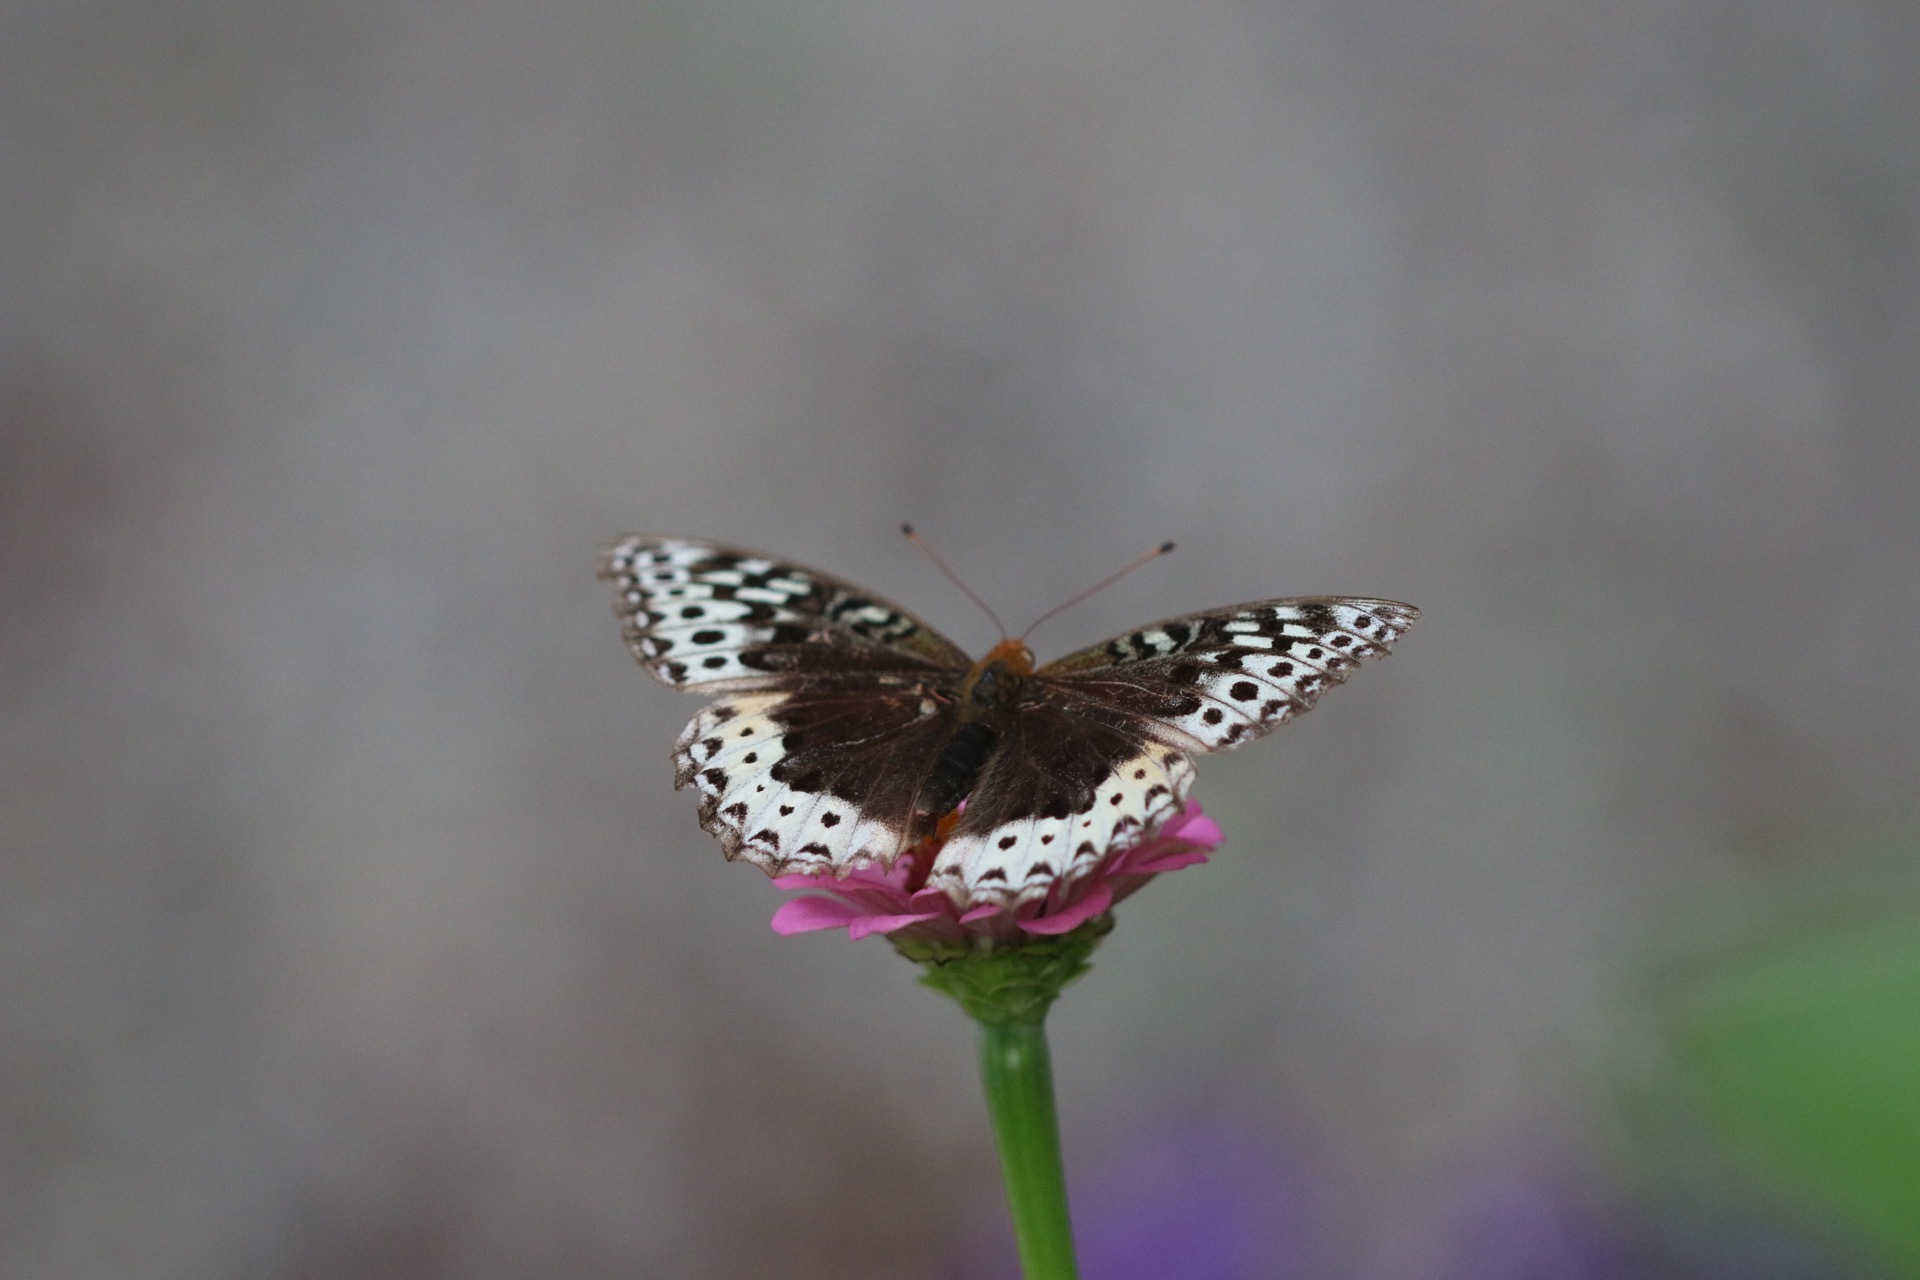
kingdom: Animalia
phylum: Arthropoda
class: Insecta
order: Lepidoptera
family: Nymphalidae
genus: Speyeria
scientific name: Speyeria cybele
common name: Great spangled fritillary
